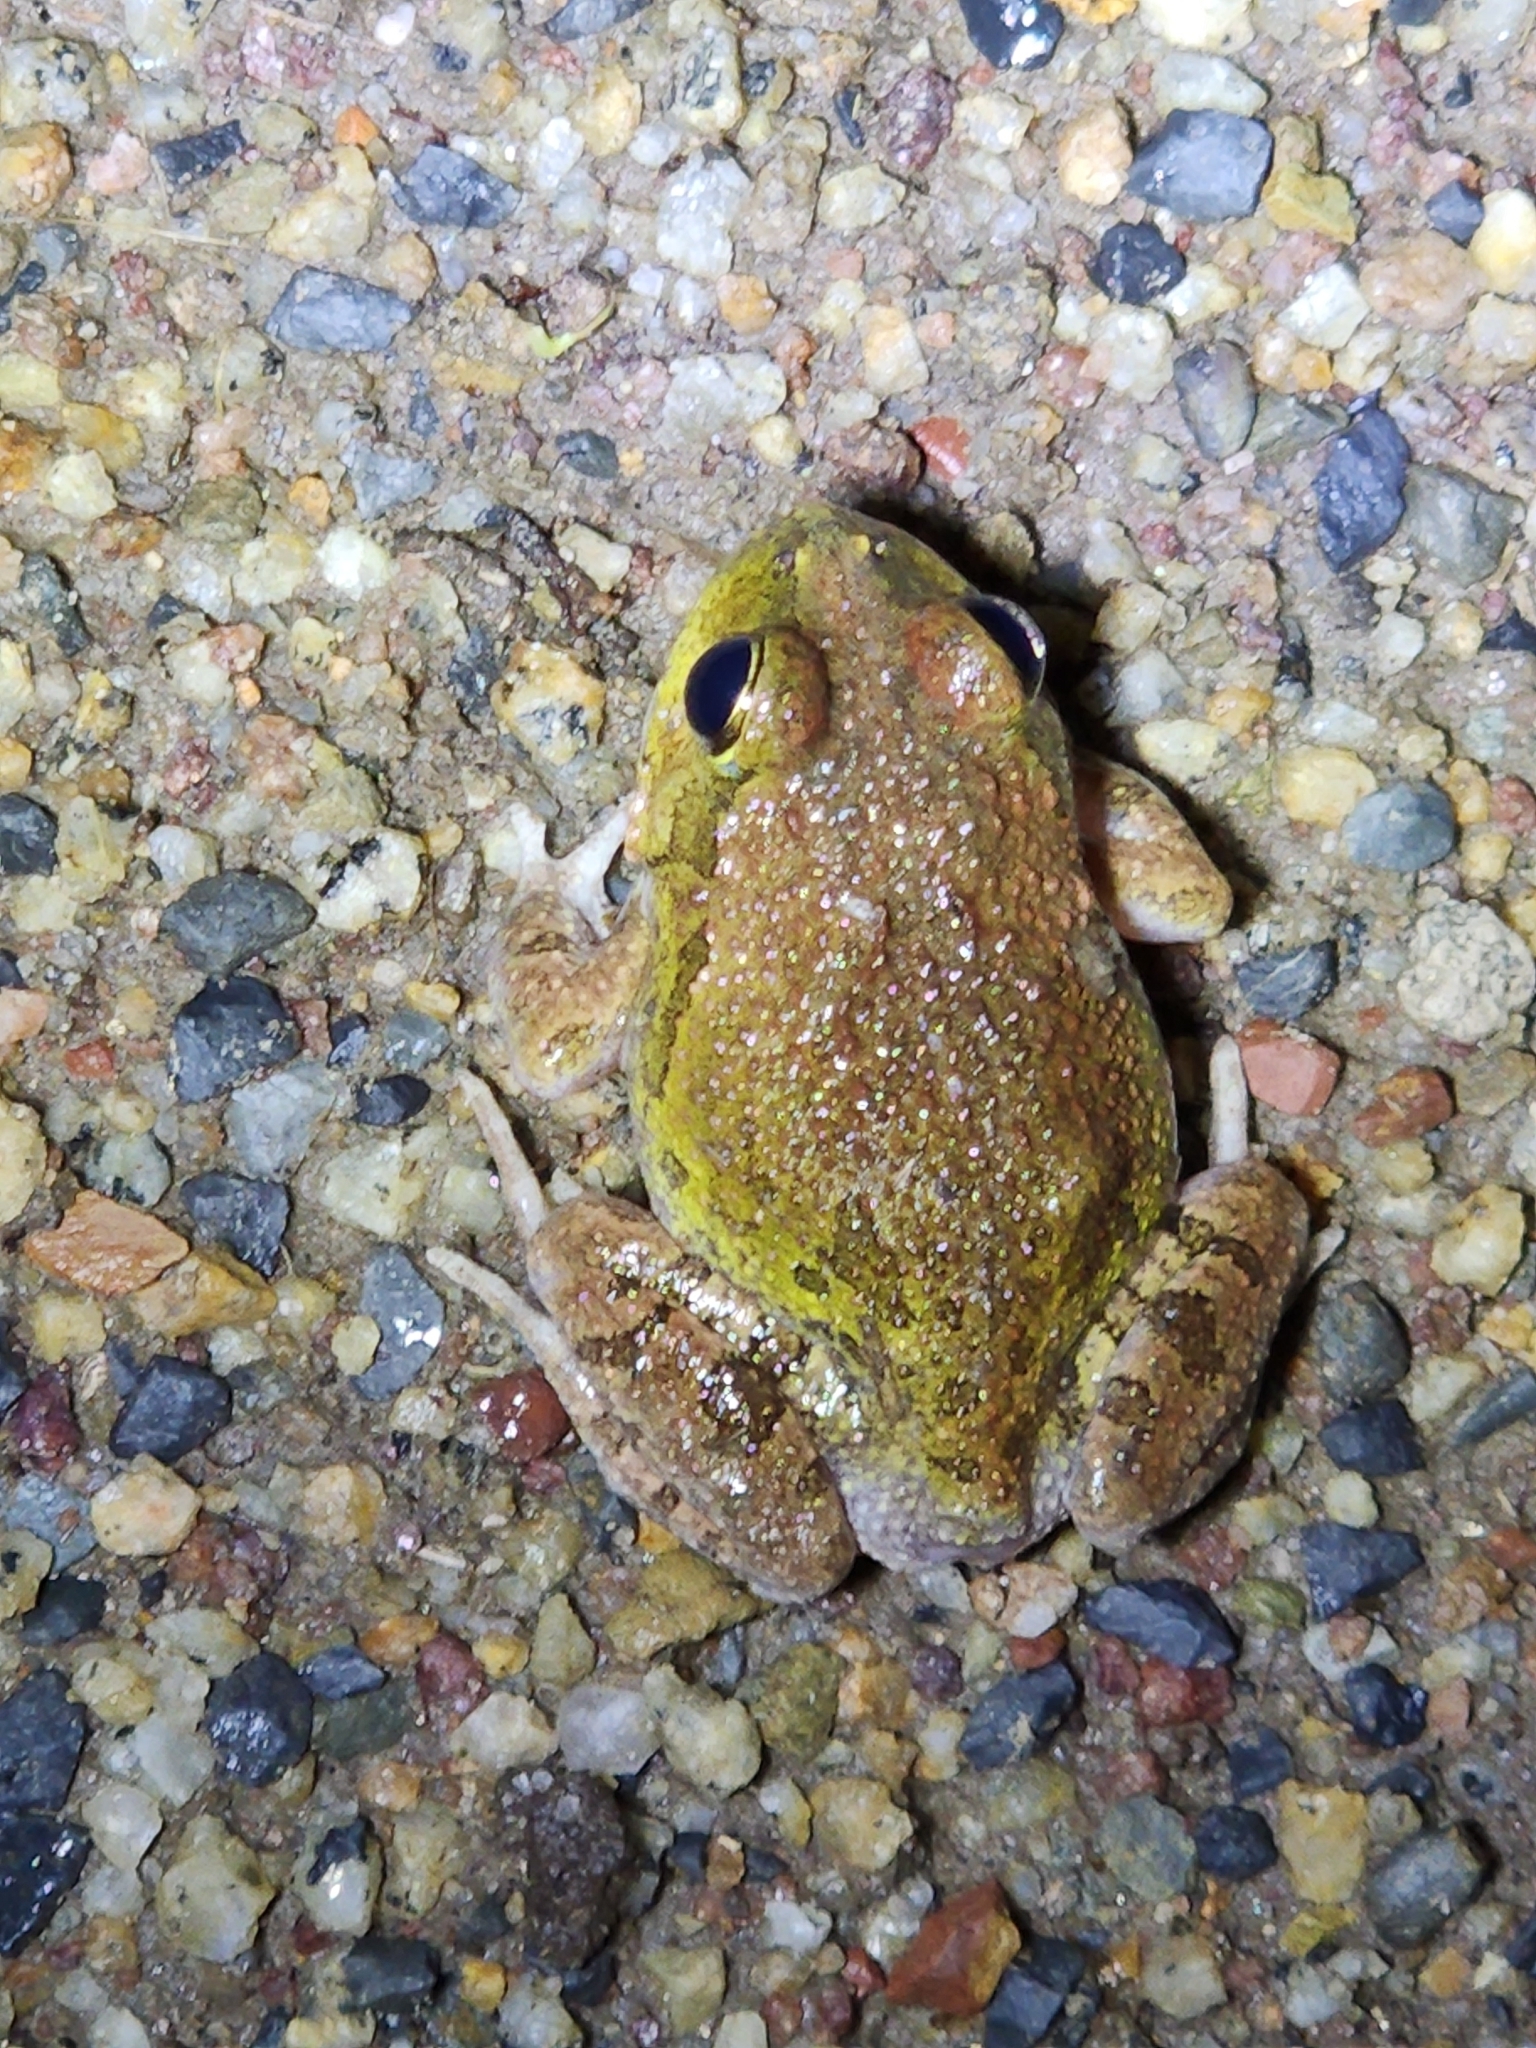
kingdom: Animalia
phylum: Chordata
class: Amphibia
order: Anura
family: Limnodynastidae
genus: Platyplectrum
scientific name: Platyplectrum ornatum
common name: Ornate burrowing frog
